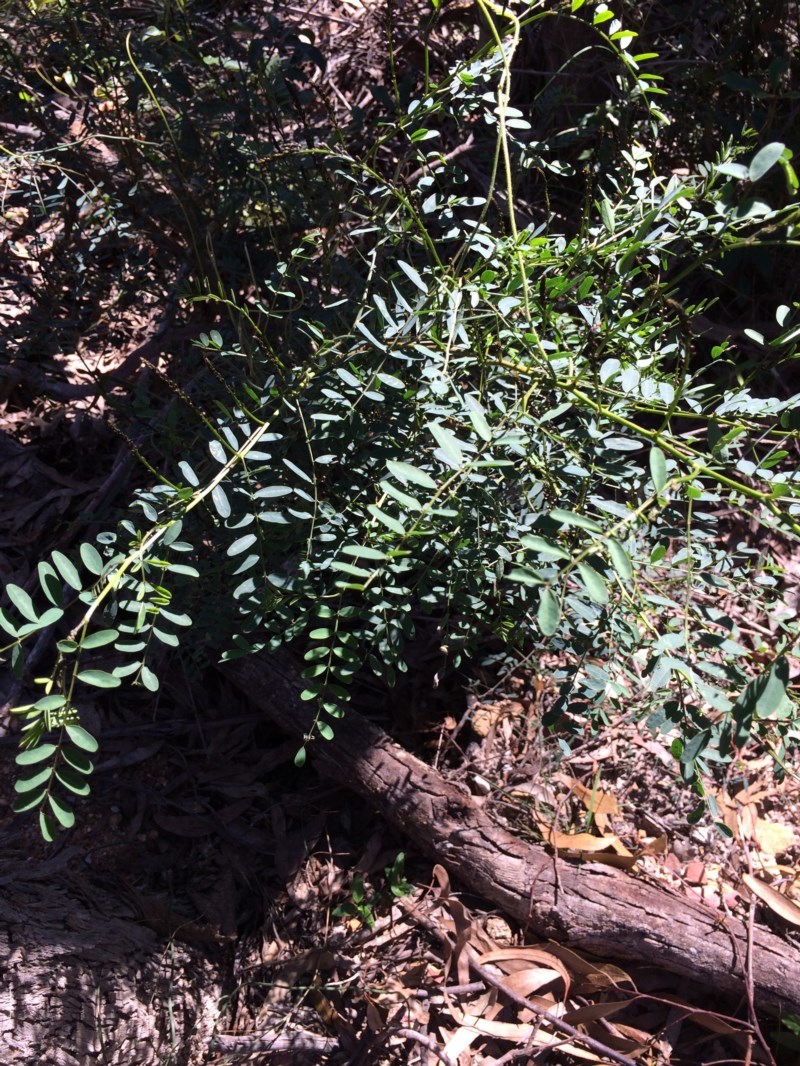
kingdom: Plantae
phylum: Tracheophyta
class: Magnoliopsida
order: Fabales
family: Fabaceae
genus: Indigofera
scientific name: Indigofera australis
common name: Australian indigo
